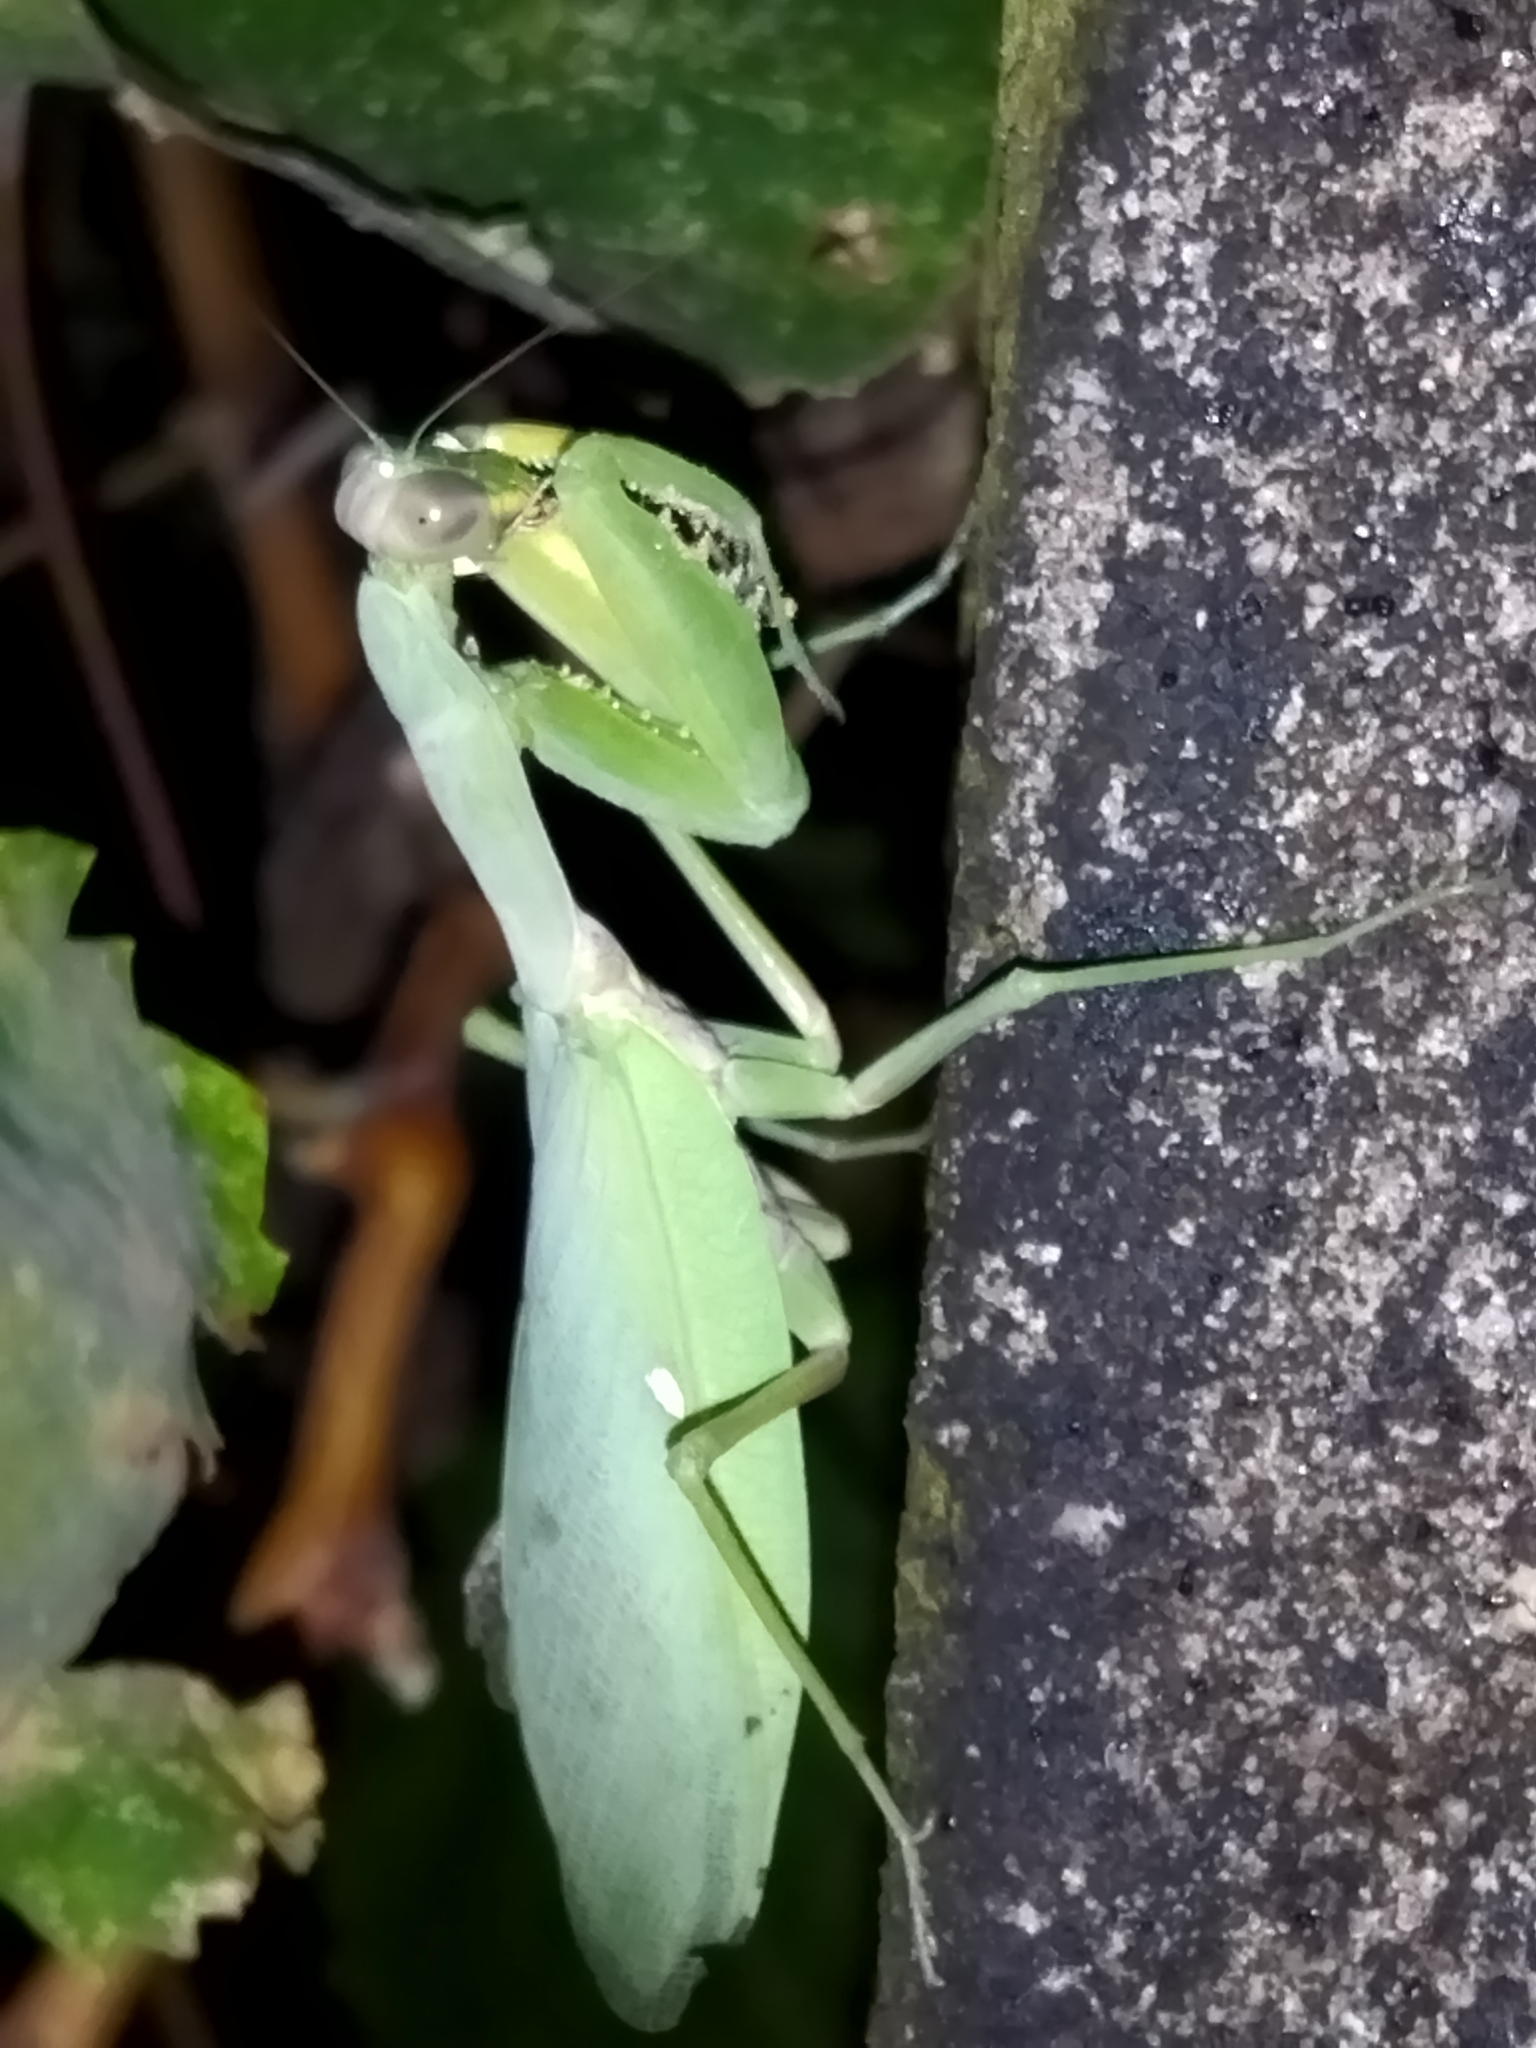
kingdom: Animalia
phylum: Arthropoda
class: Insecta
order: Mantodea
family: Mantidae
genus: Hierodula
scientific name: Hierodula transcaucasica
